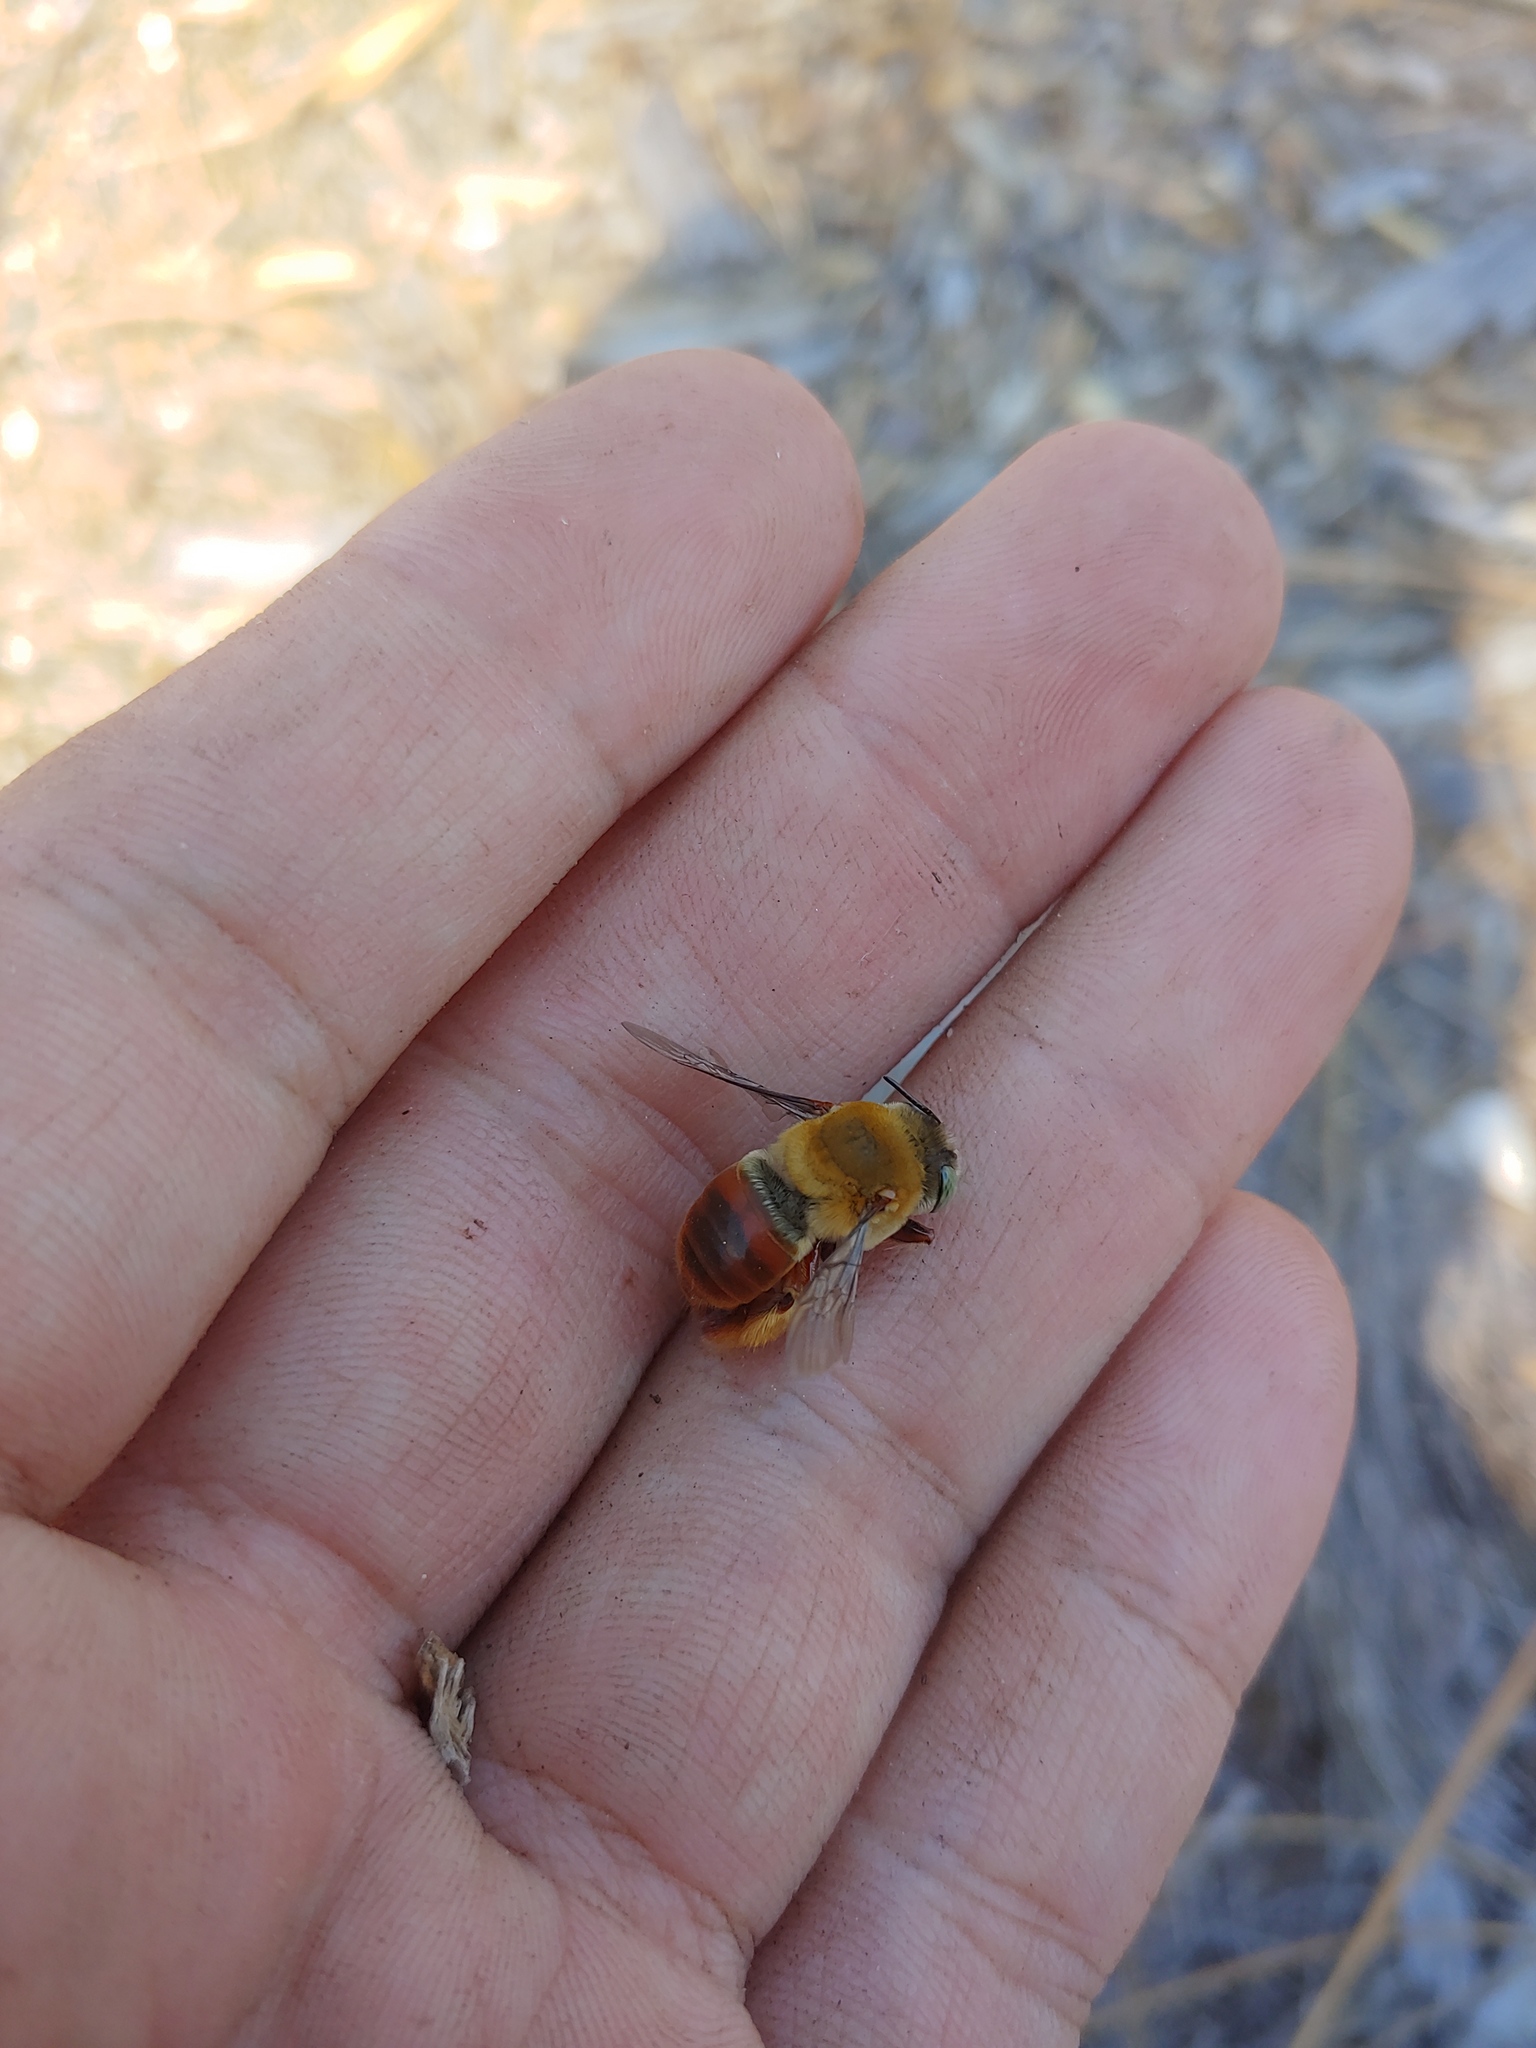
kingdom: Animalia
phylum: Arthropoda
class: Insecta
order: Hymenoptera
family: Apidae
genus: Centris
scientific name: Centris errans
